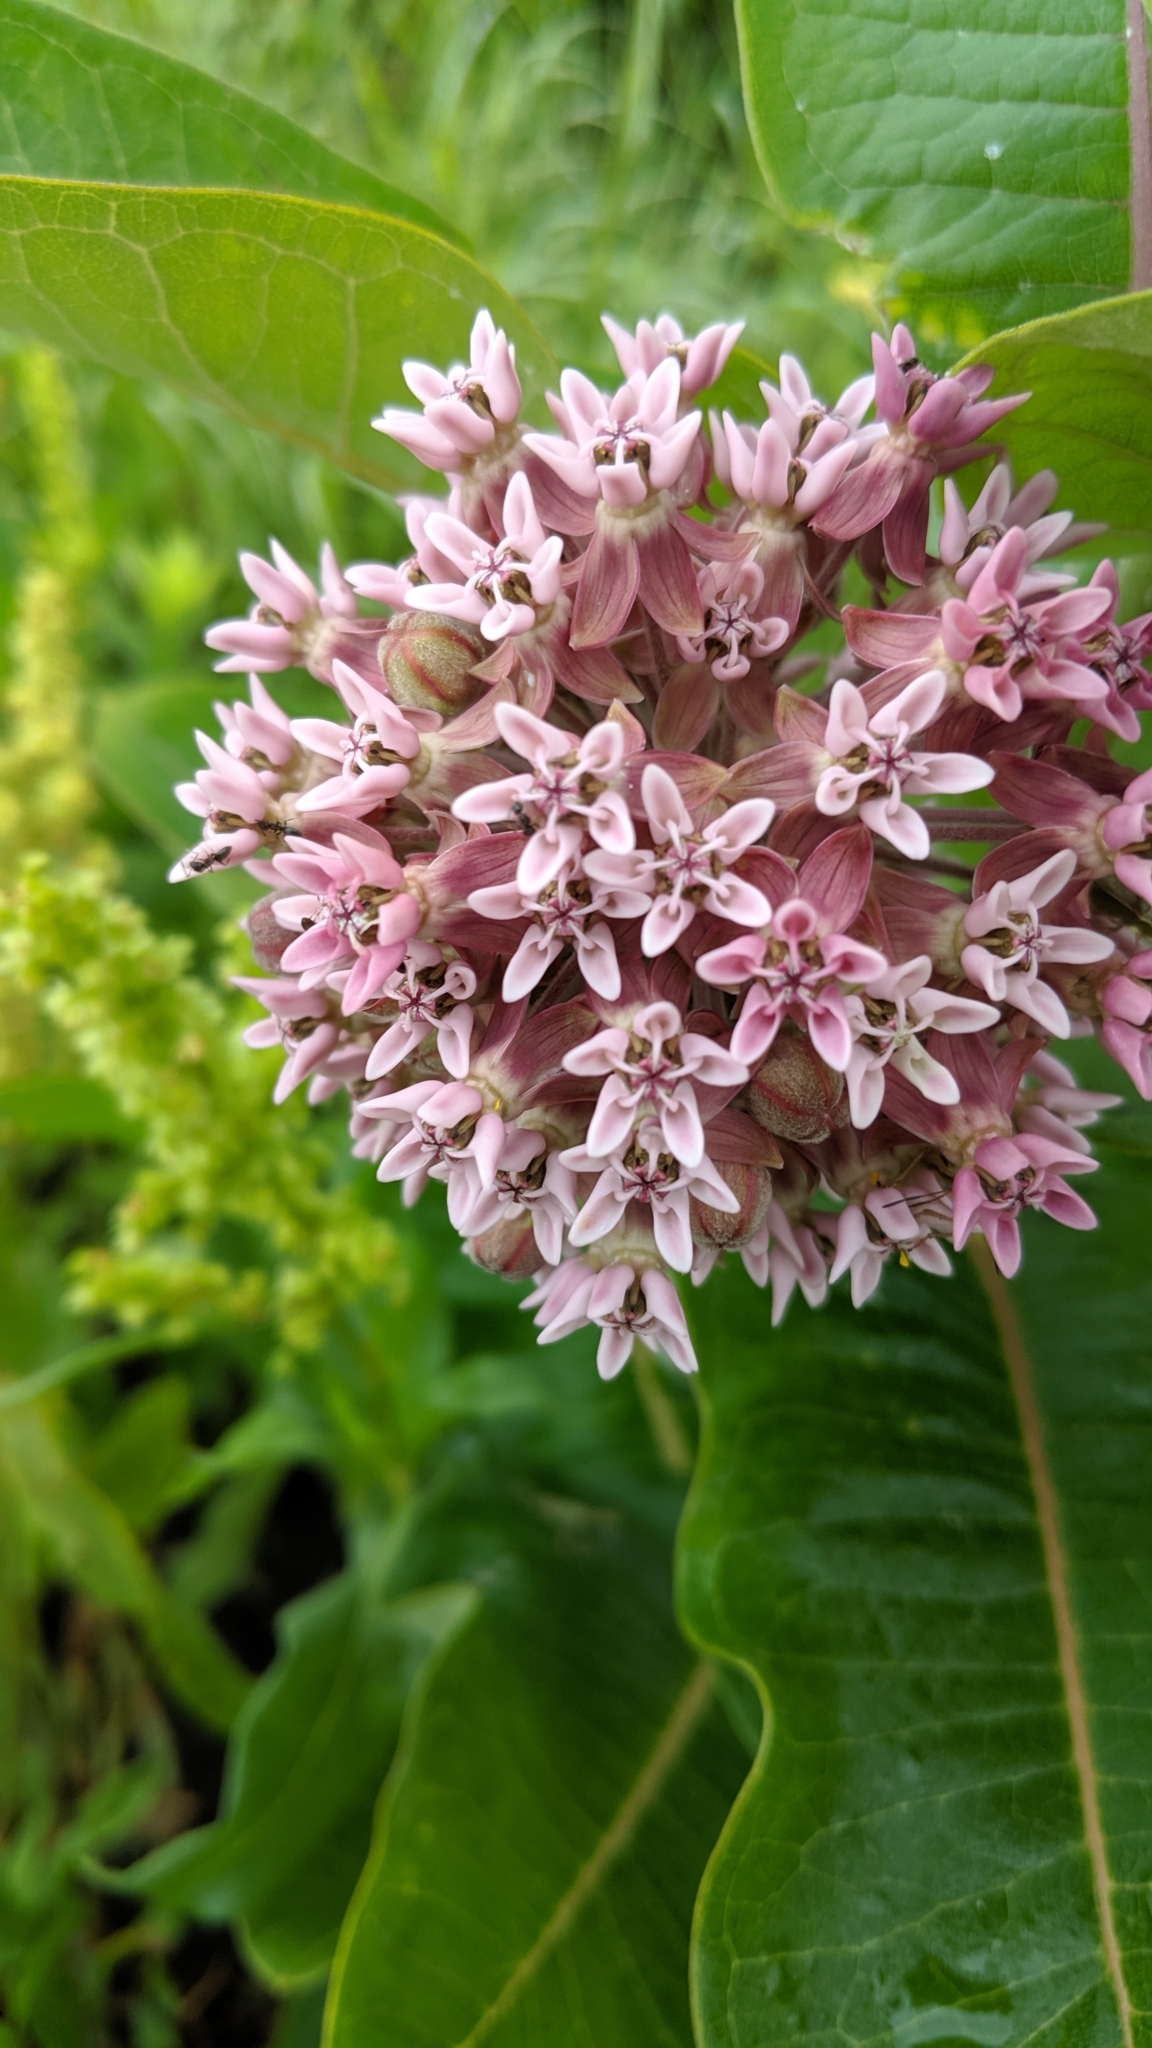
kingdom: Plantae
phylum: Tracheophyta
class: Magnoliopsida
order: Gentianales
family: Apocynaceae
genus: Asclepias
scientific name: Asclepias syriaca
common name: Common milkweed
